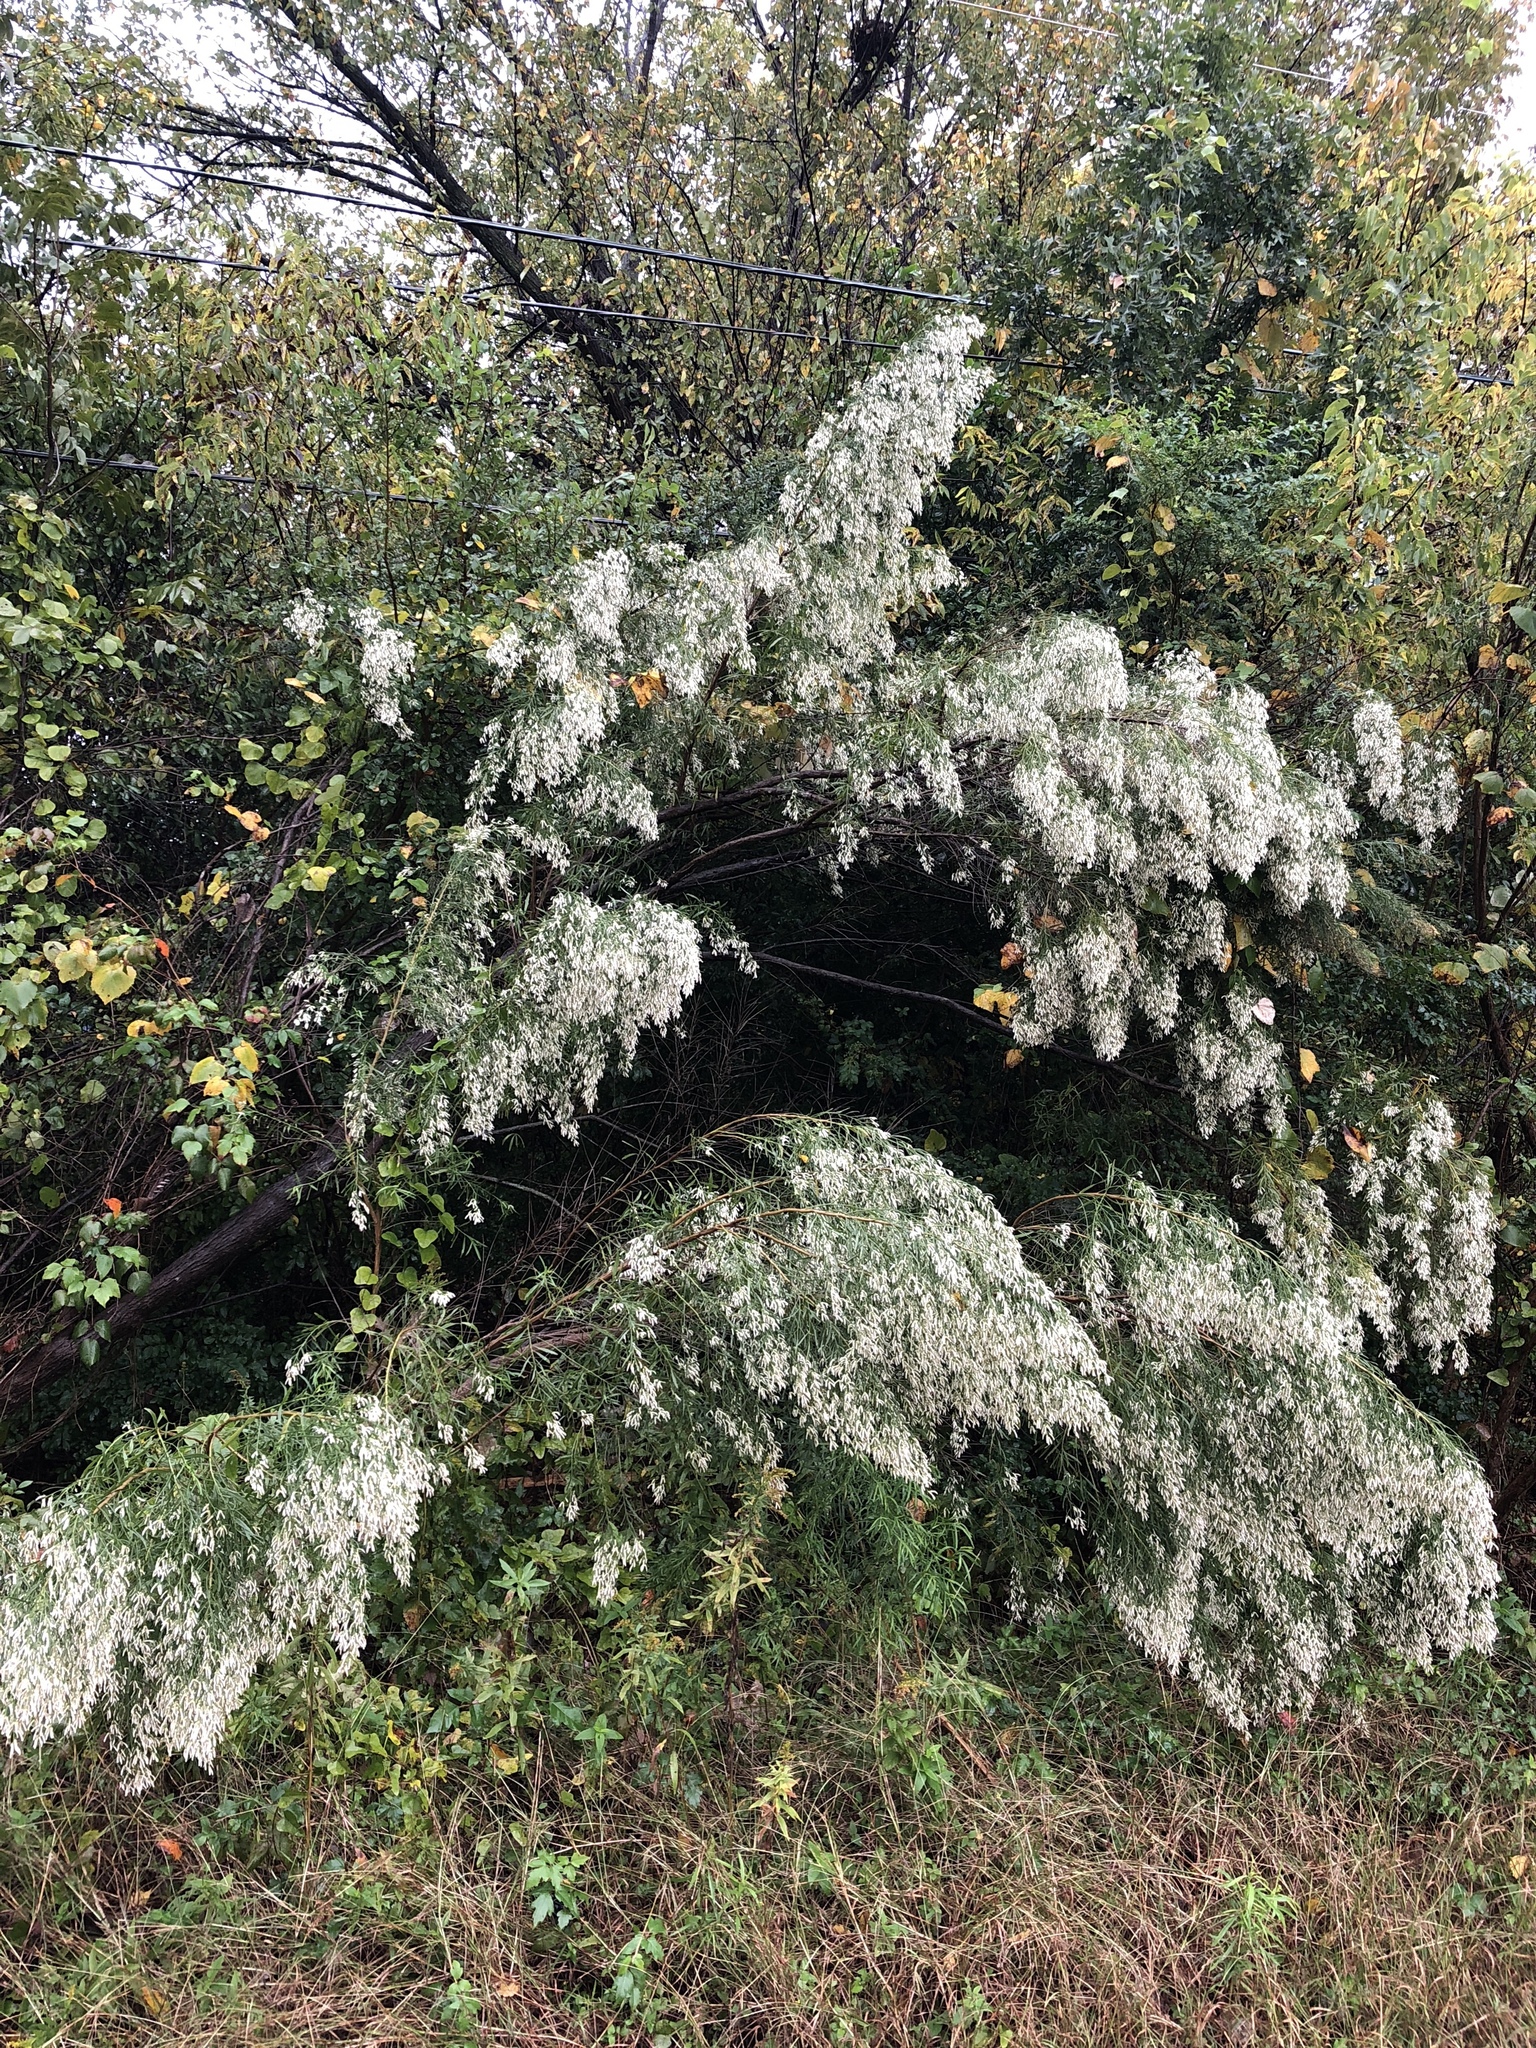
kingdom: Plantae
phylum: Tracheophyta
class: Magnoliopsida
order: Asterales
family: Asteraceae
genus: Baccharis
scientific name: Baccharis neglecta
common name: Roosevelt-weed
